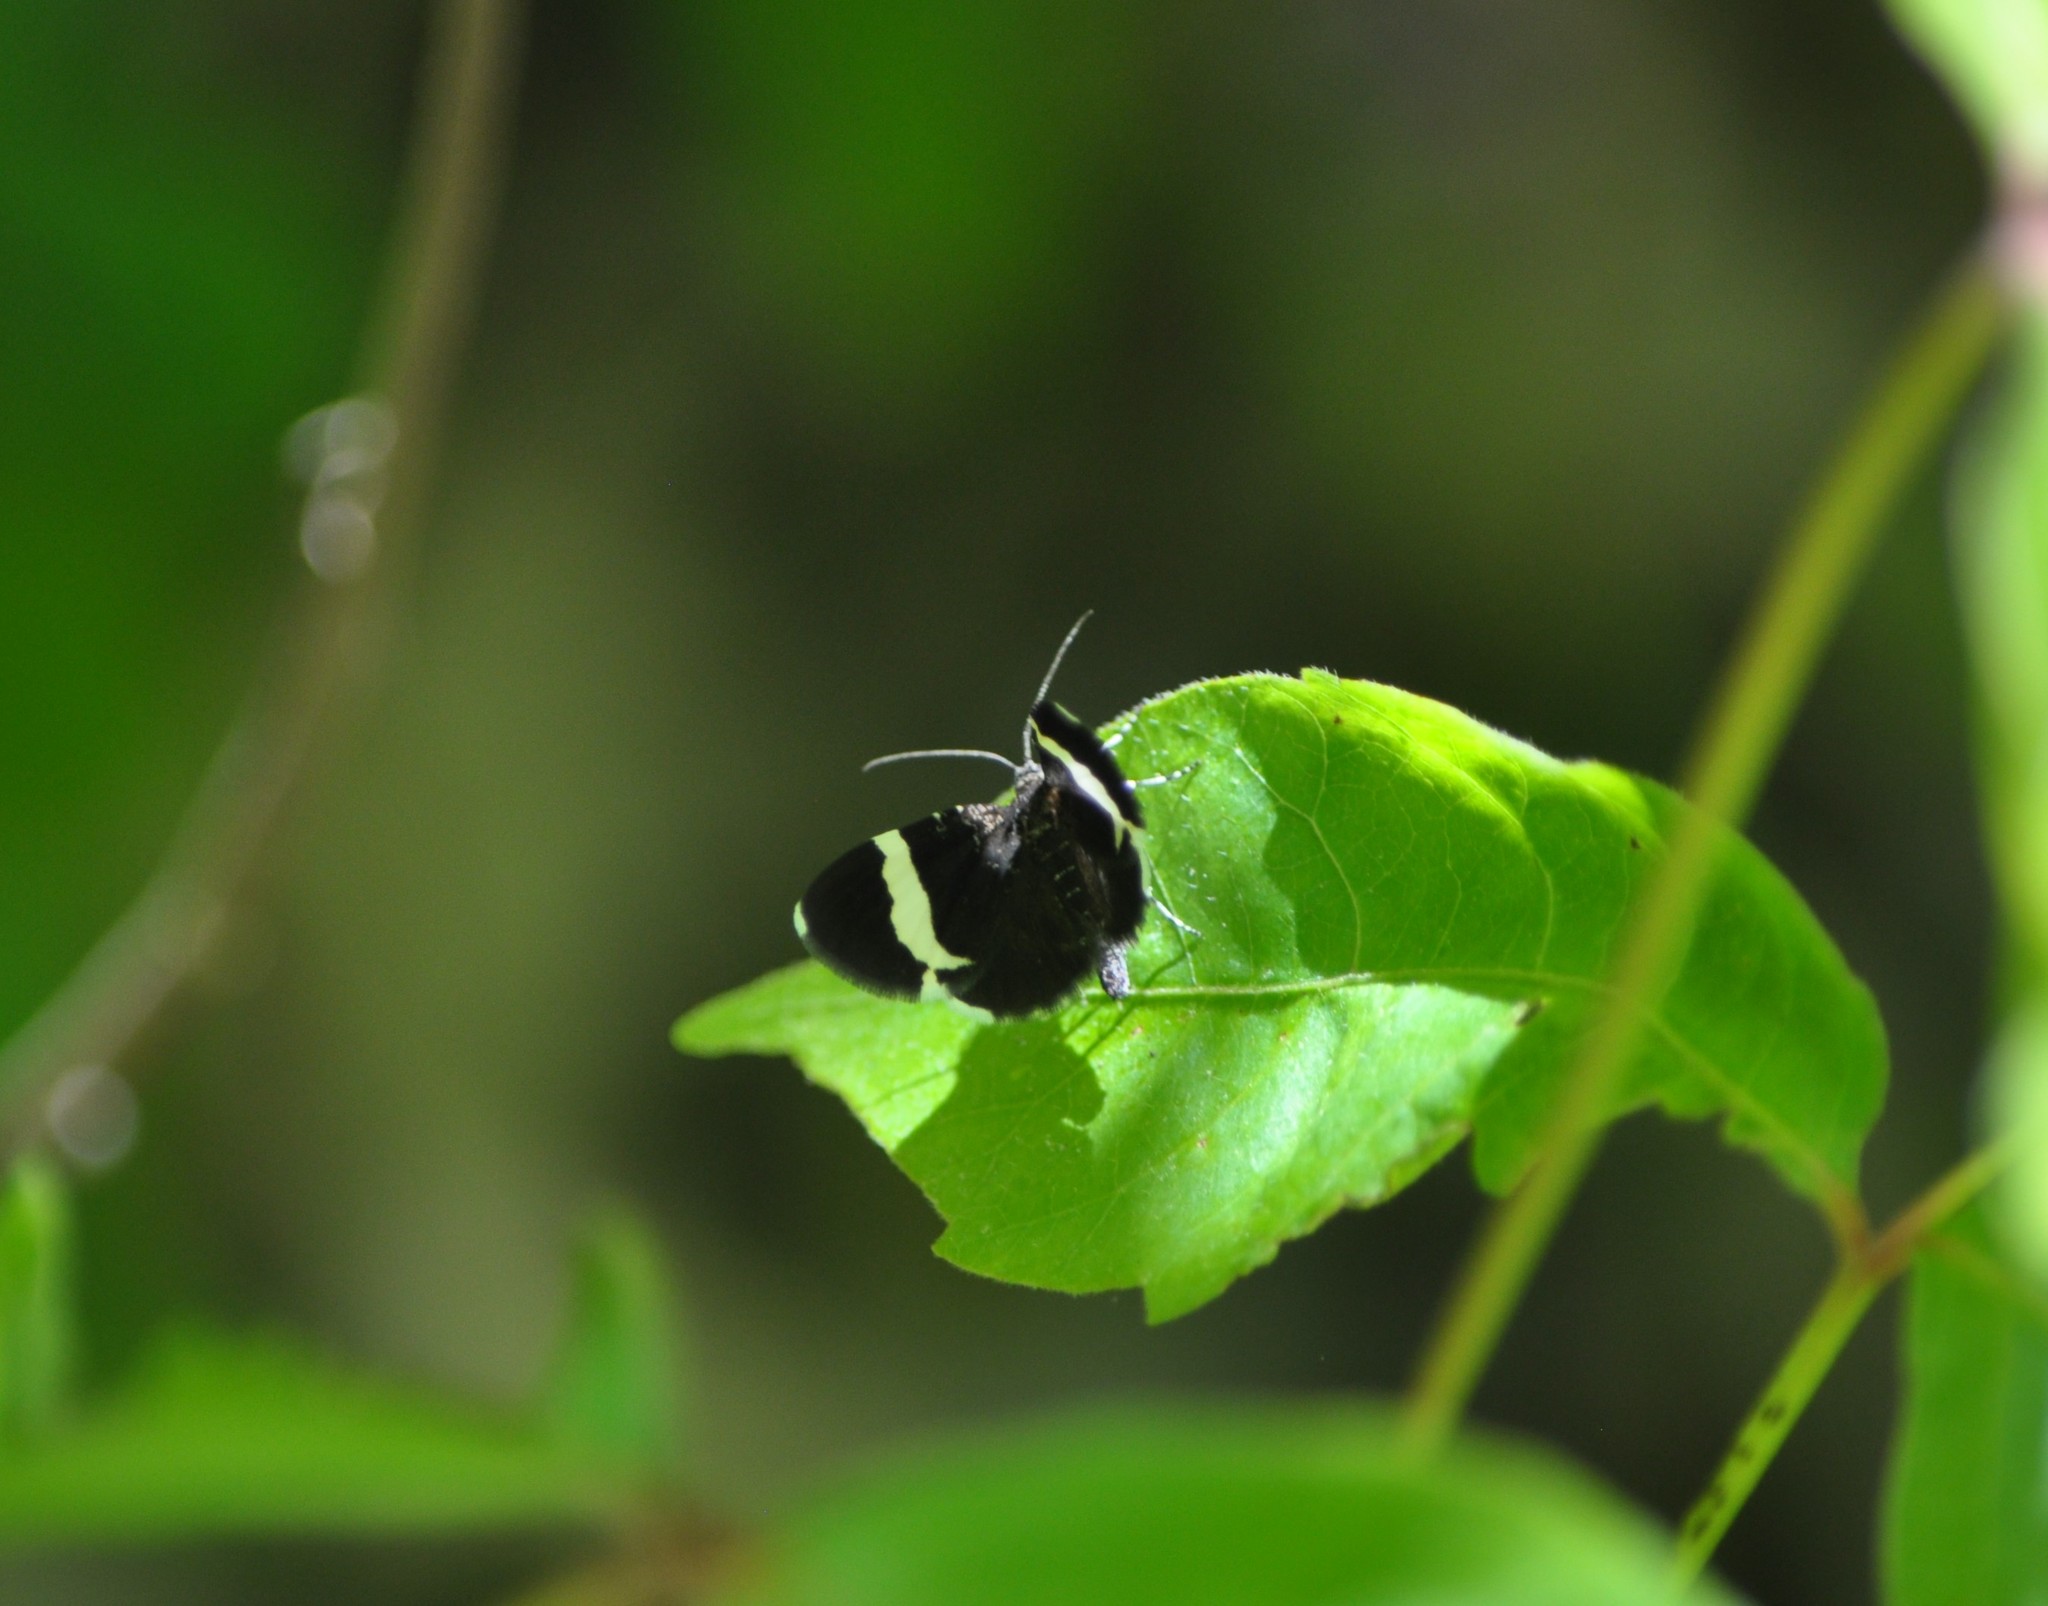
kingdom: Animalia
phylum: Arthropoda
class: Insecta
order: Lepidoptera
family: Geometridae
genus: Trichodezia
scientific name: Trichodezia albovittata
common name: White striped black
